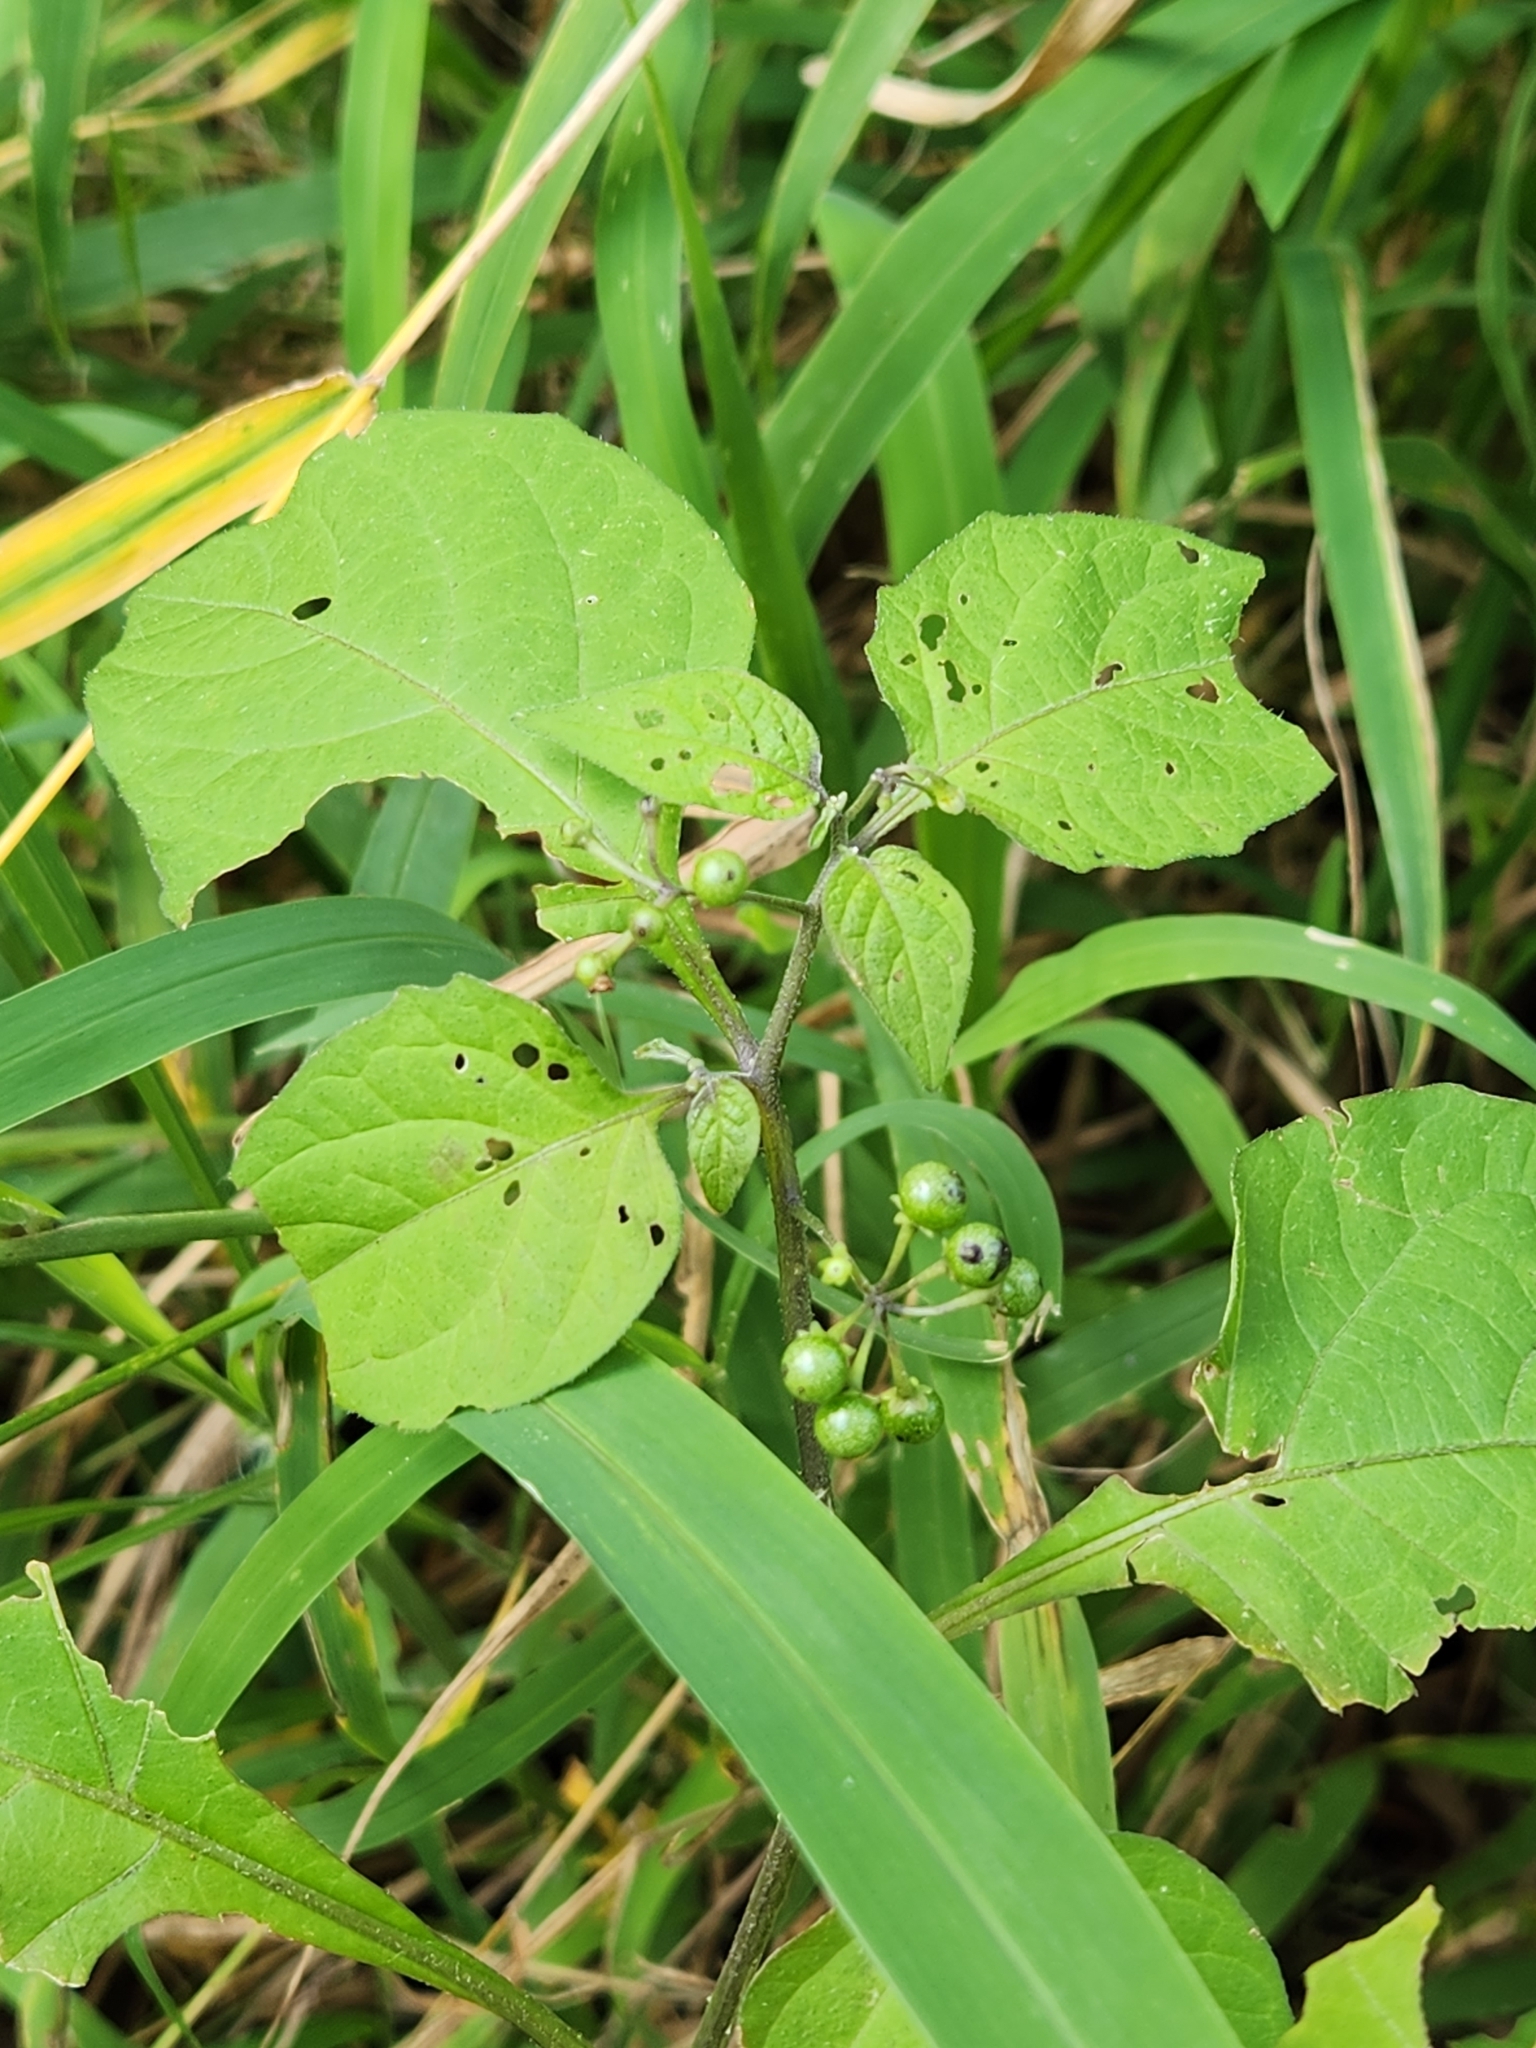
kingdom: Plantae
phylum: Tracheophyta
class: Magnoliopsida
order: Solanales
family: Solanaceae
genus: Solanum
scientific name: Solanum americanum
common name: American black nightshade
